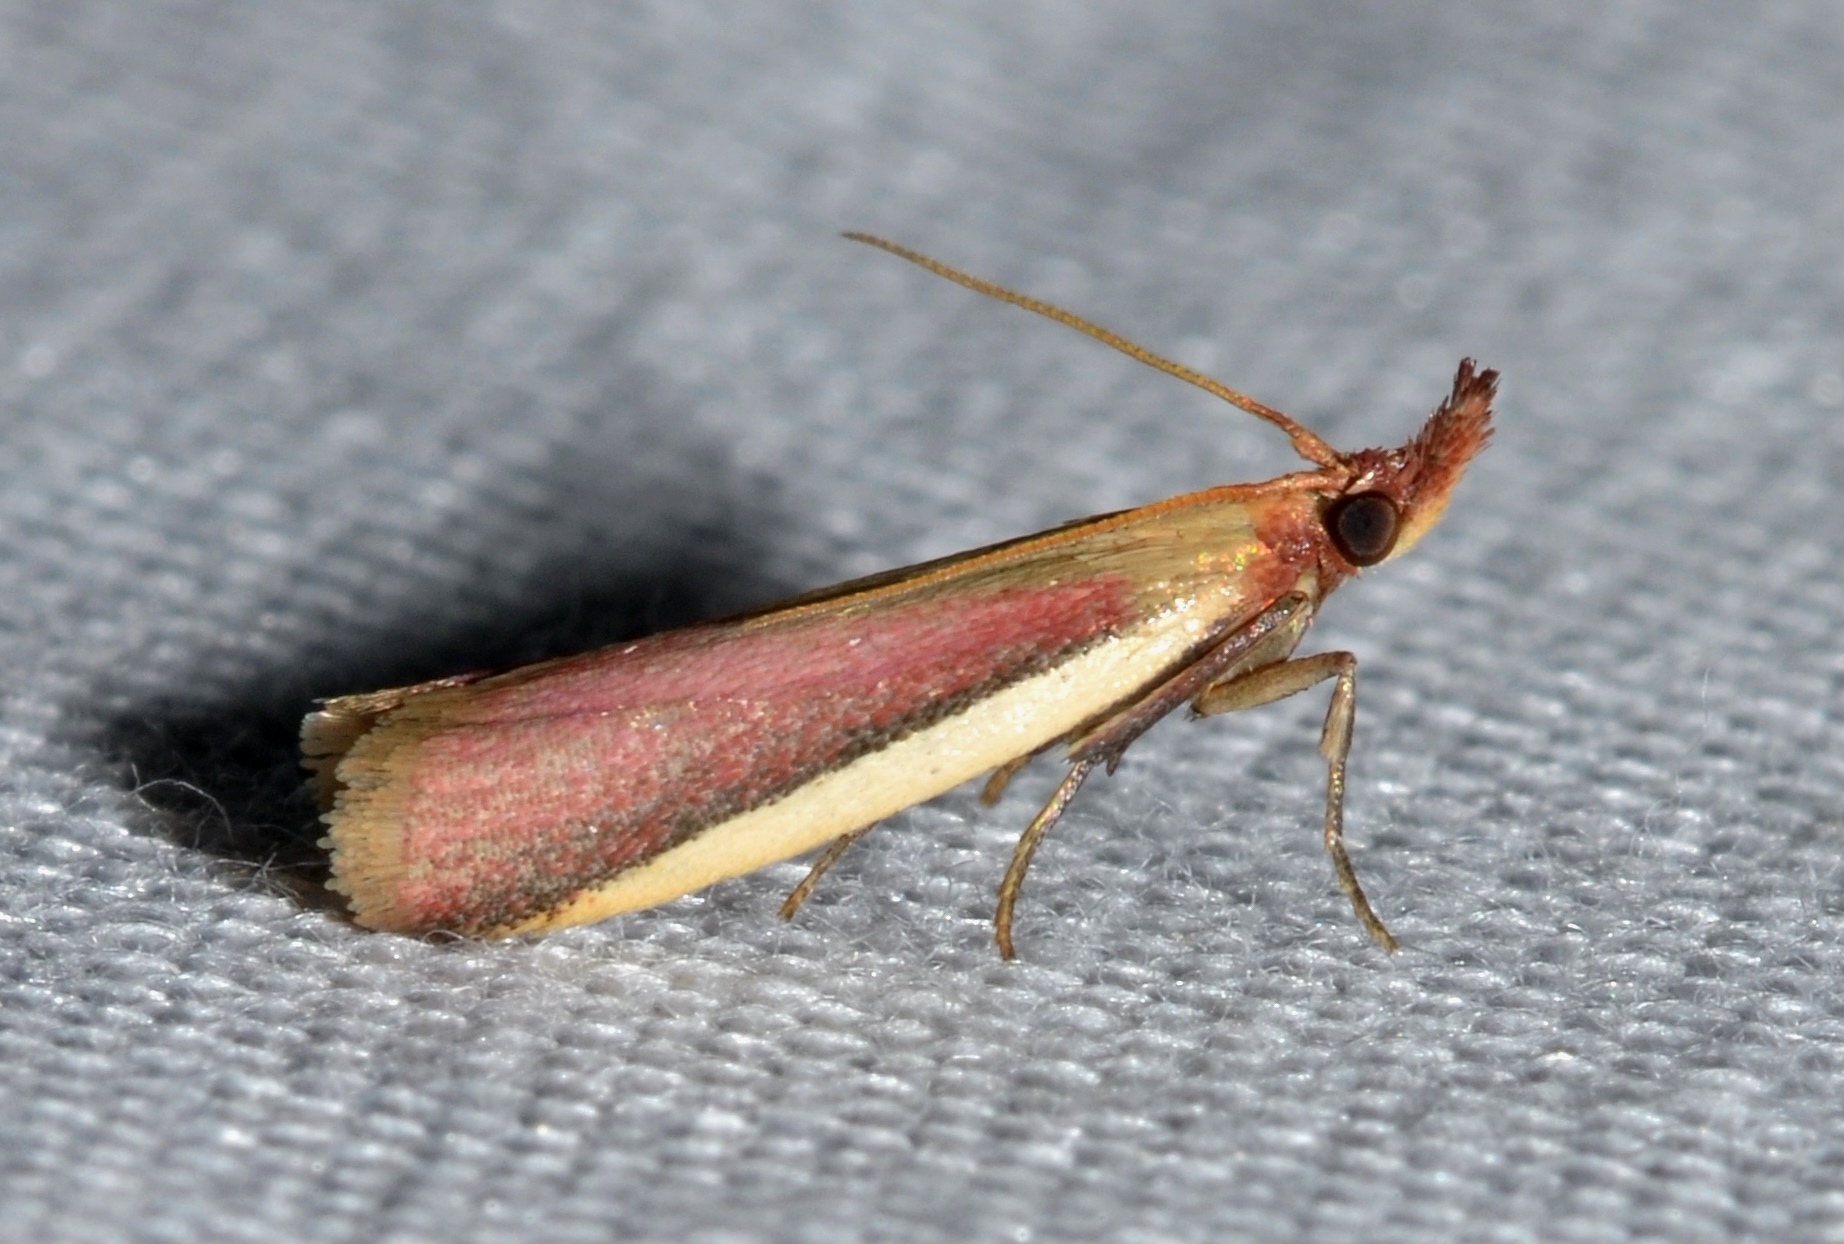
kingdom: Animalia
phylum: Arthropoda
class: Insecta
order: Lepidoptera
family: Pyralidae
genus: Peoria
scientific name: Peoria approximella
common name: Carmine snout
